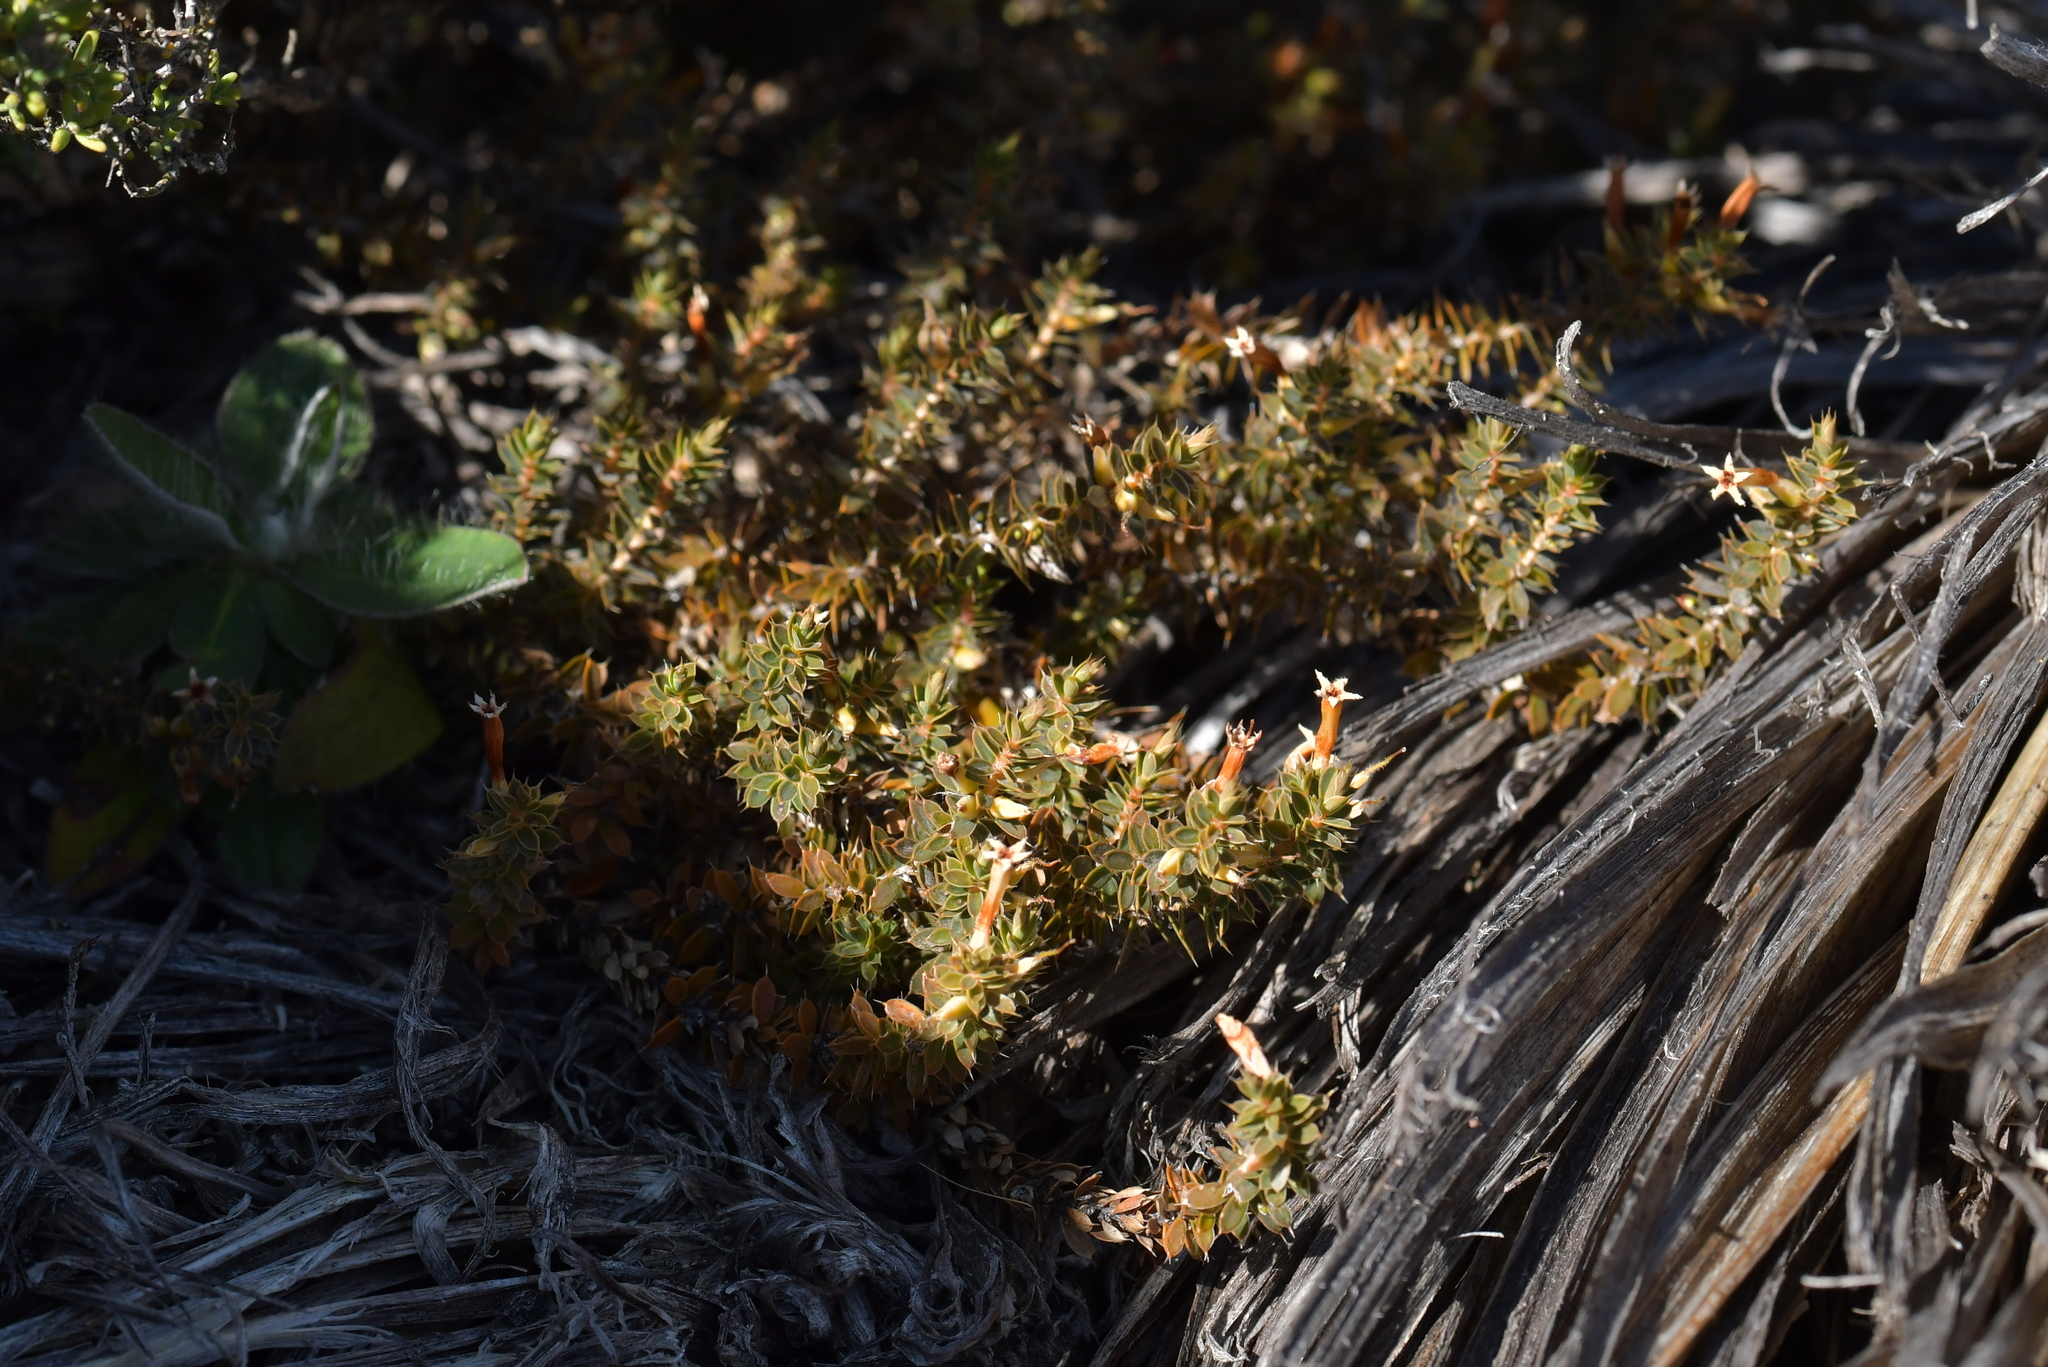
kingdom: Plantae
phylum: Tracheophyta
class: Magnoliopsida
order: Ericales
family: Ericaceae
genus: Styphelia
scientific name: Styphelia nesophila
